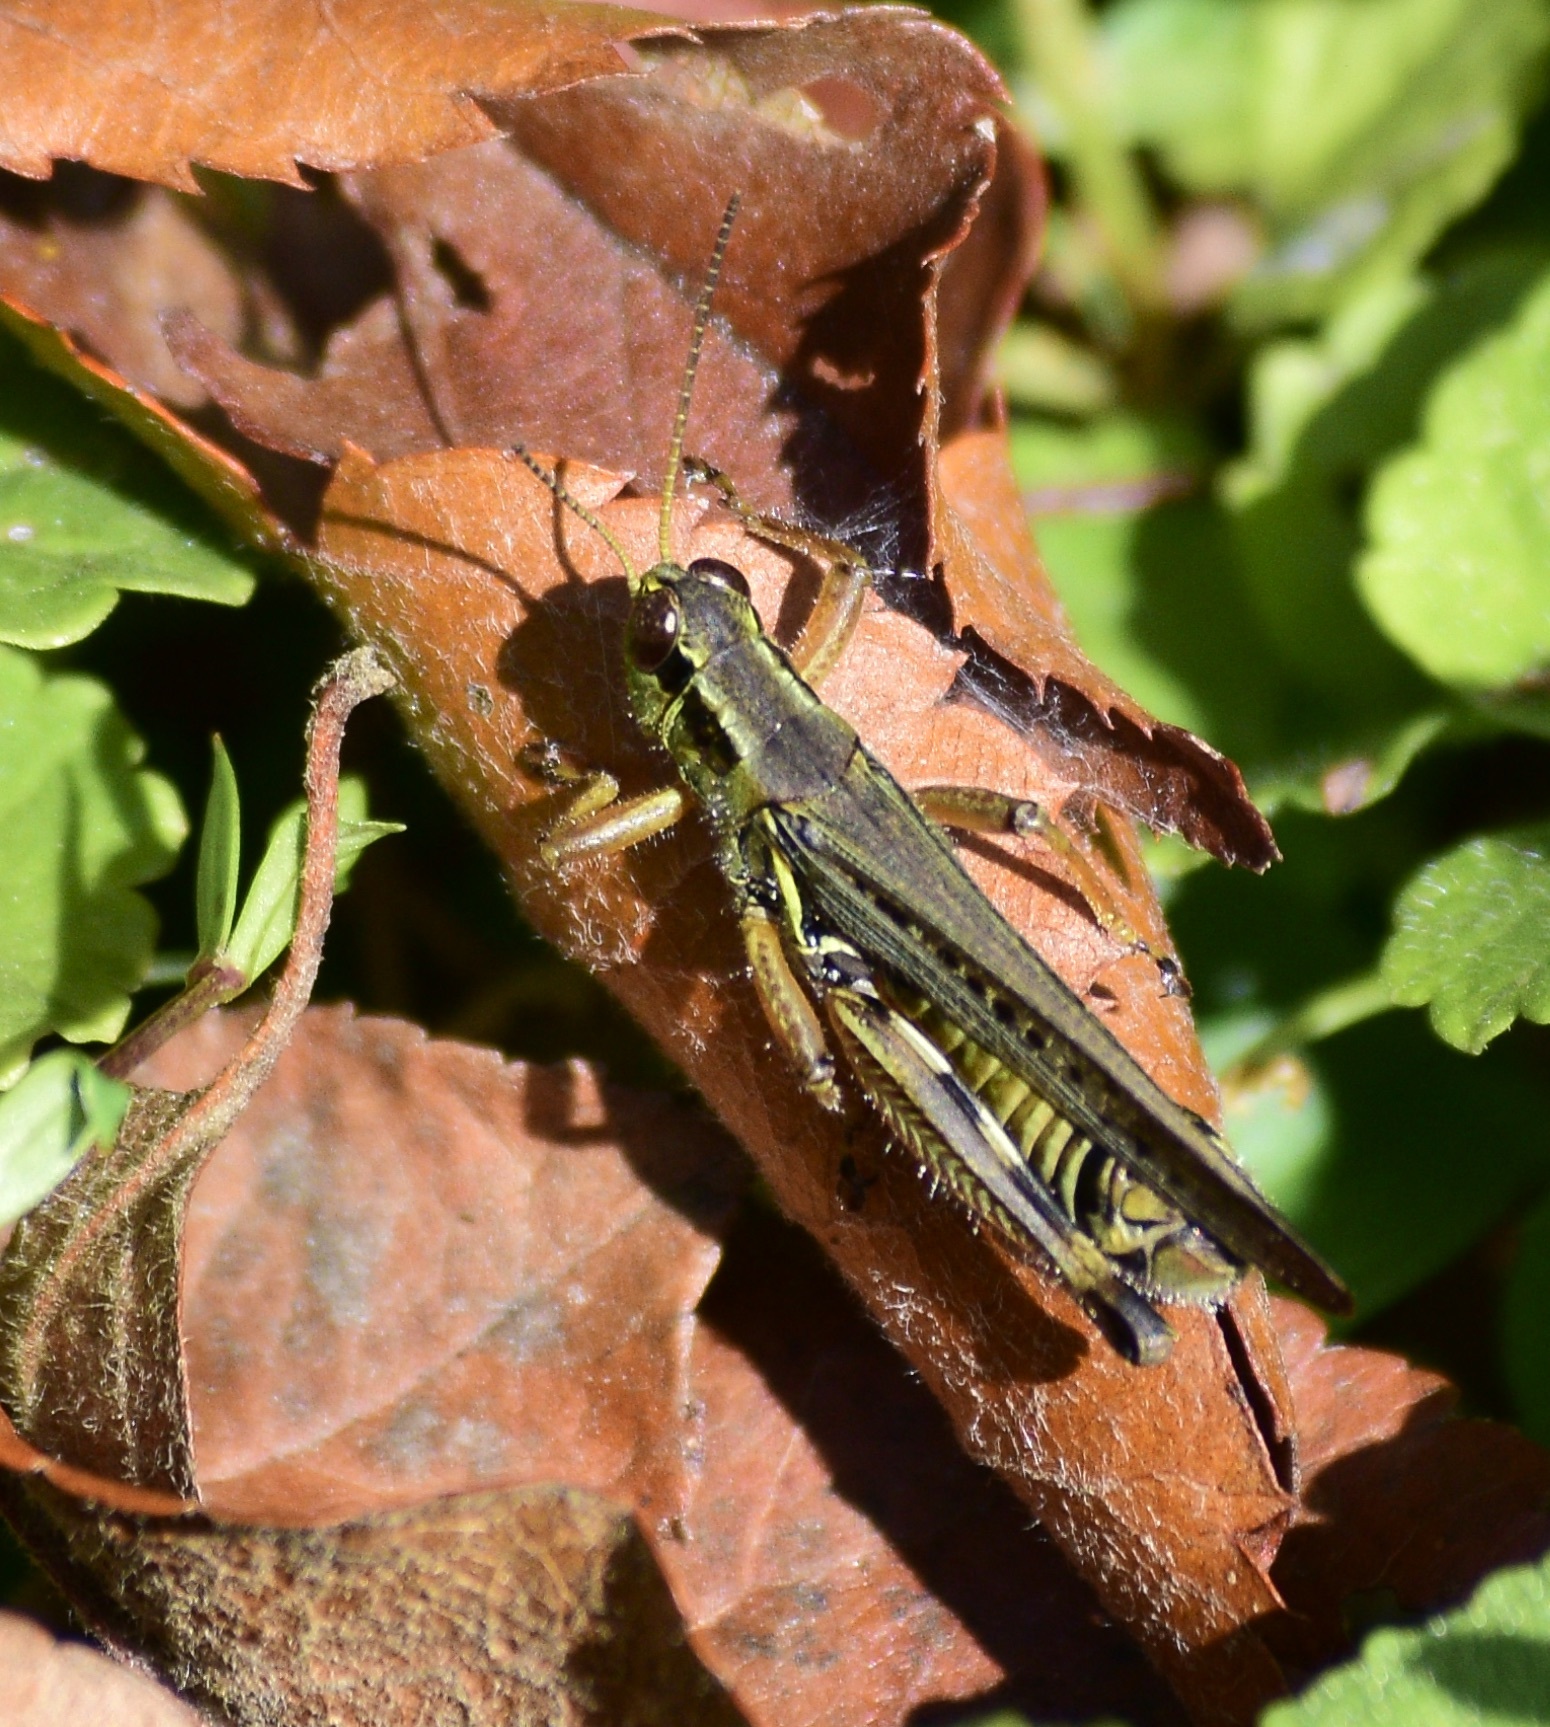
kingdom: Animalia
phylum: Arthropoda
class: Insecta
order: Orthoptera
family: Acrididae
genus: Melanoplus
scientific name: Melanoplus femurrubrum
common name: Red-legged grasshopper
